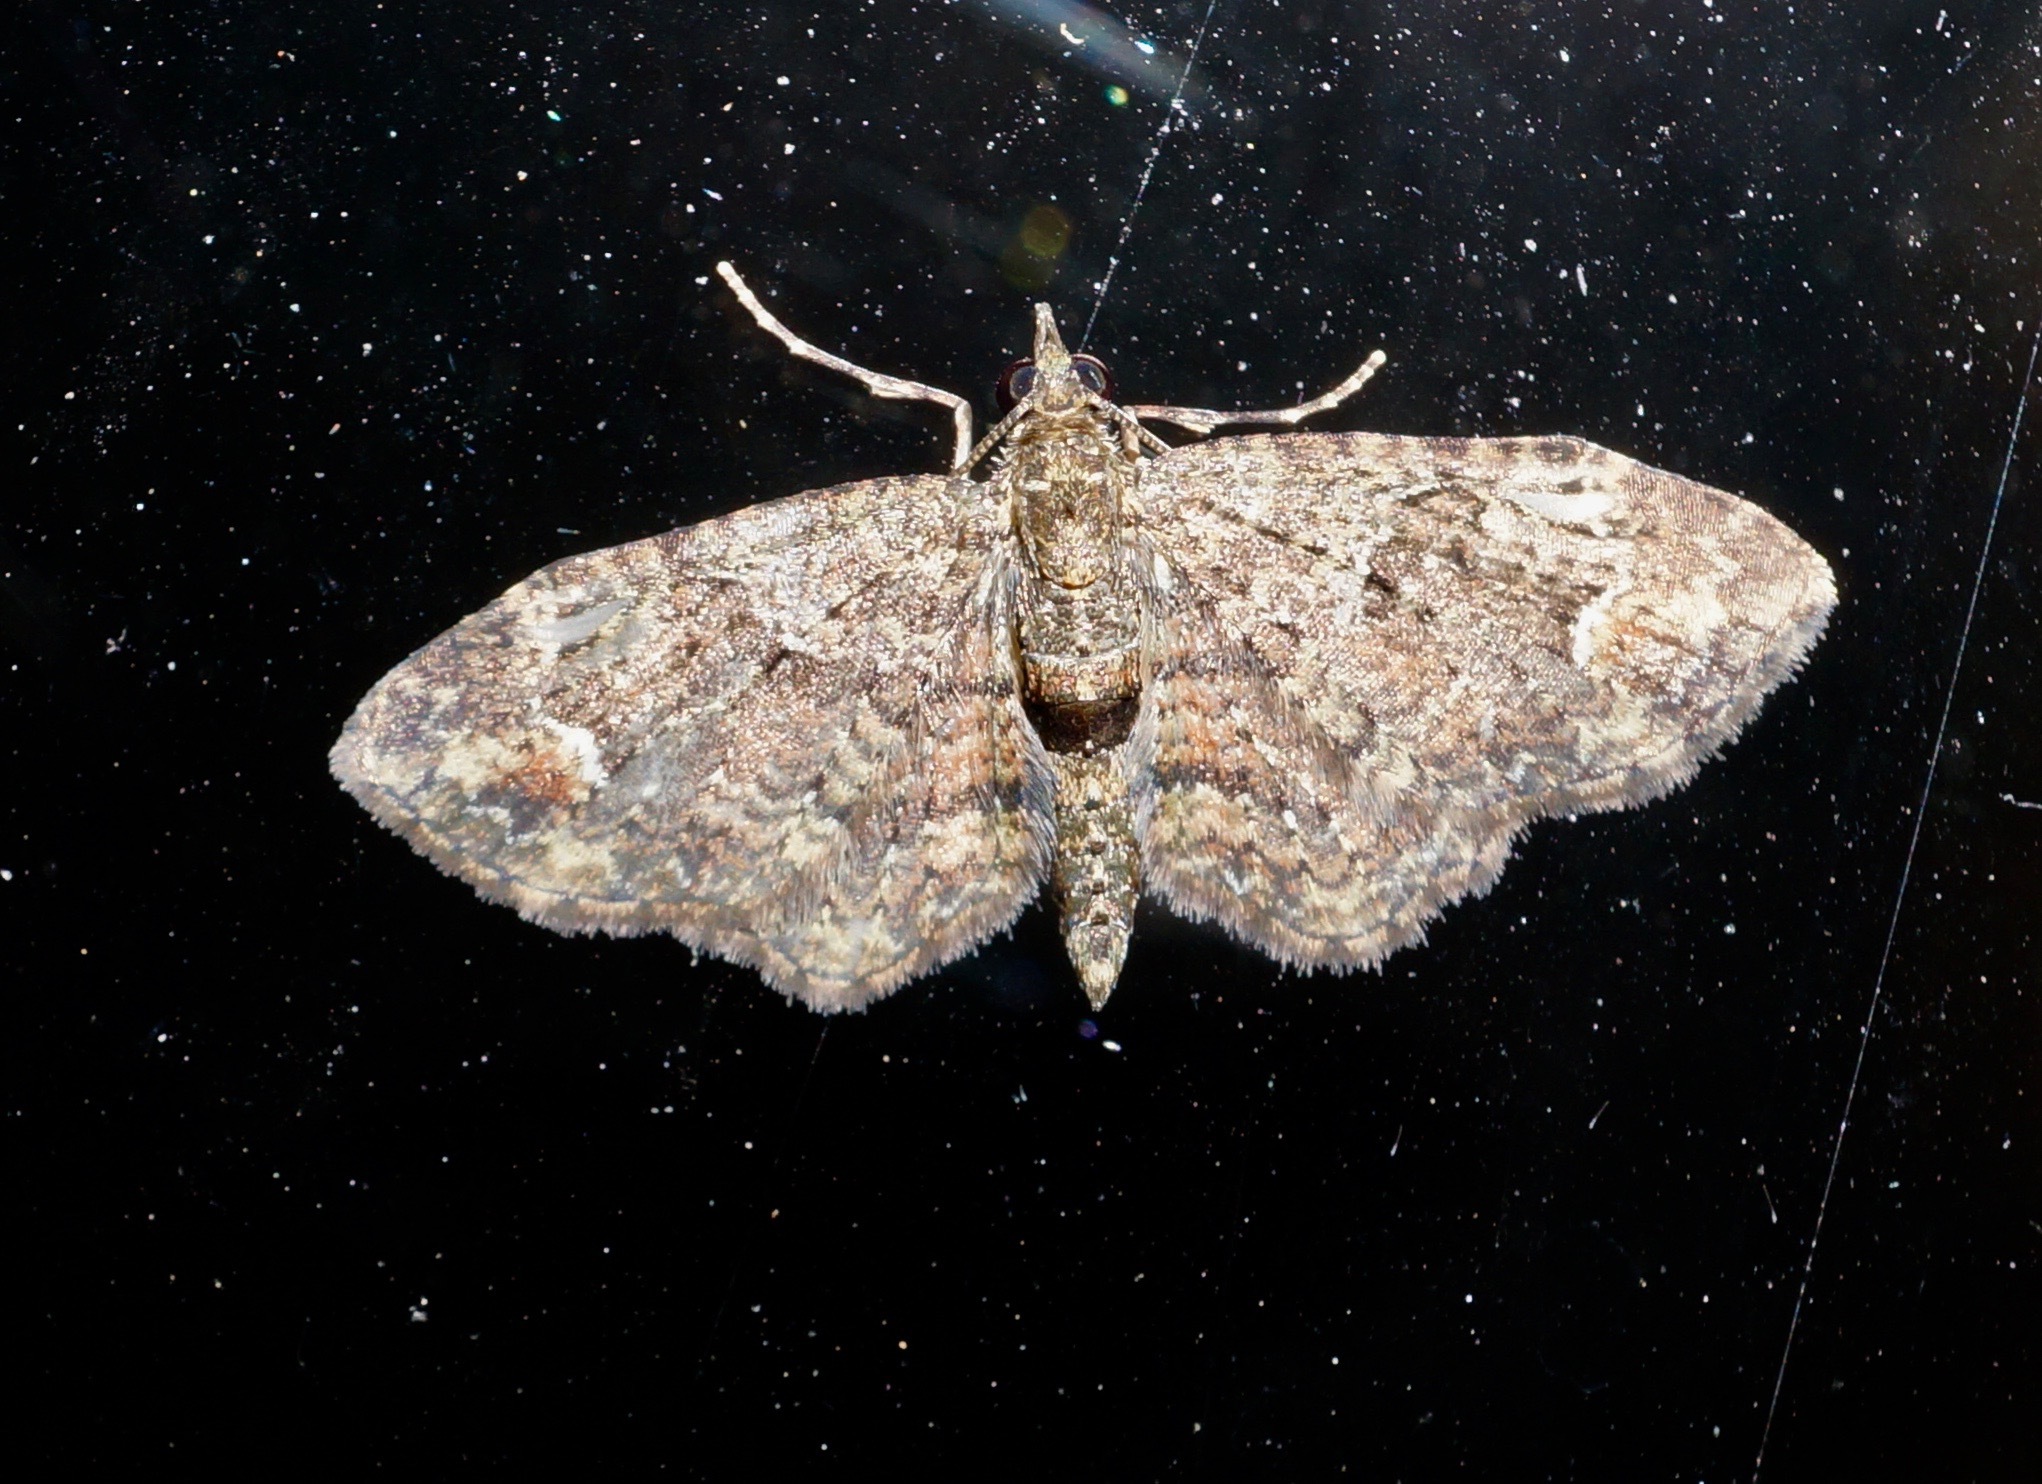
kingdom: Animalia
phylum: Arthropoda
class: Insecta
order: Lepidoptera
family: Geometridae
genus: Pasiphilodes
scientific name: Pasiphilodes testulata
